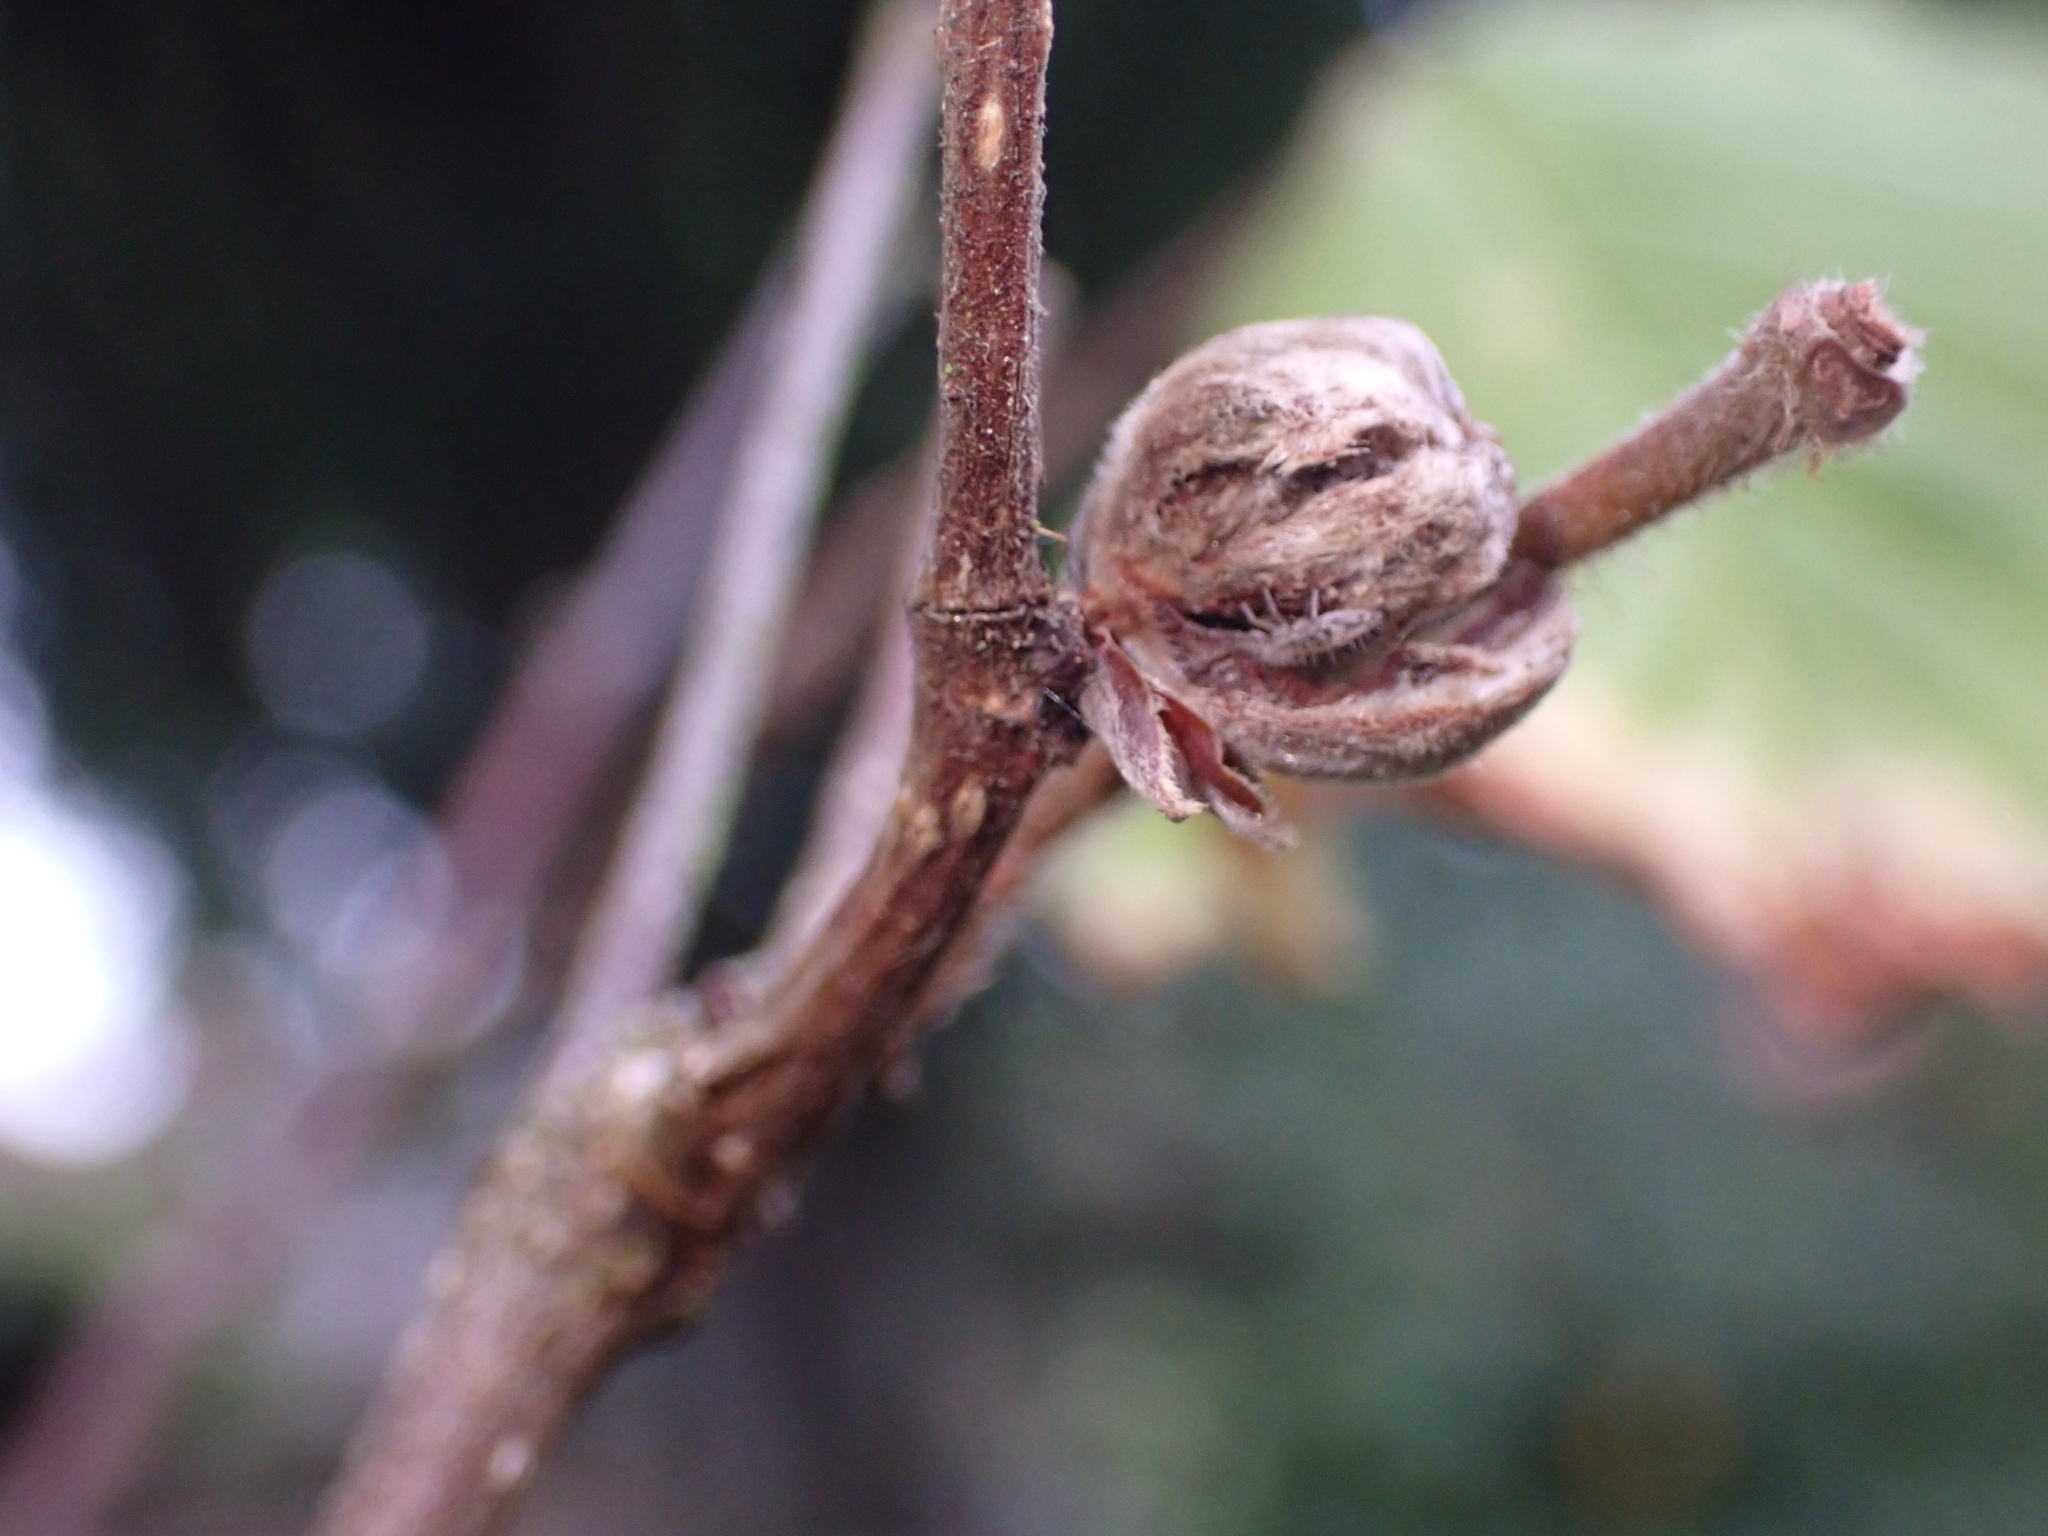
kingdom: Animalia
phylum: Arthropoda
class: Arachnida
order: Trombidiformes
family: Phytoptidae
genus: Phytoptus
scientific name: Phytoptus avellanae
